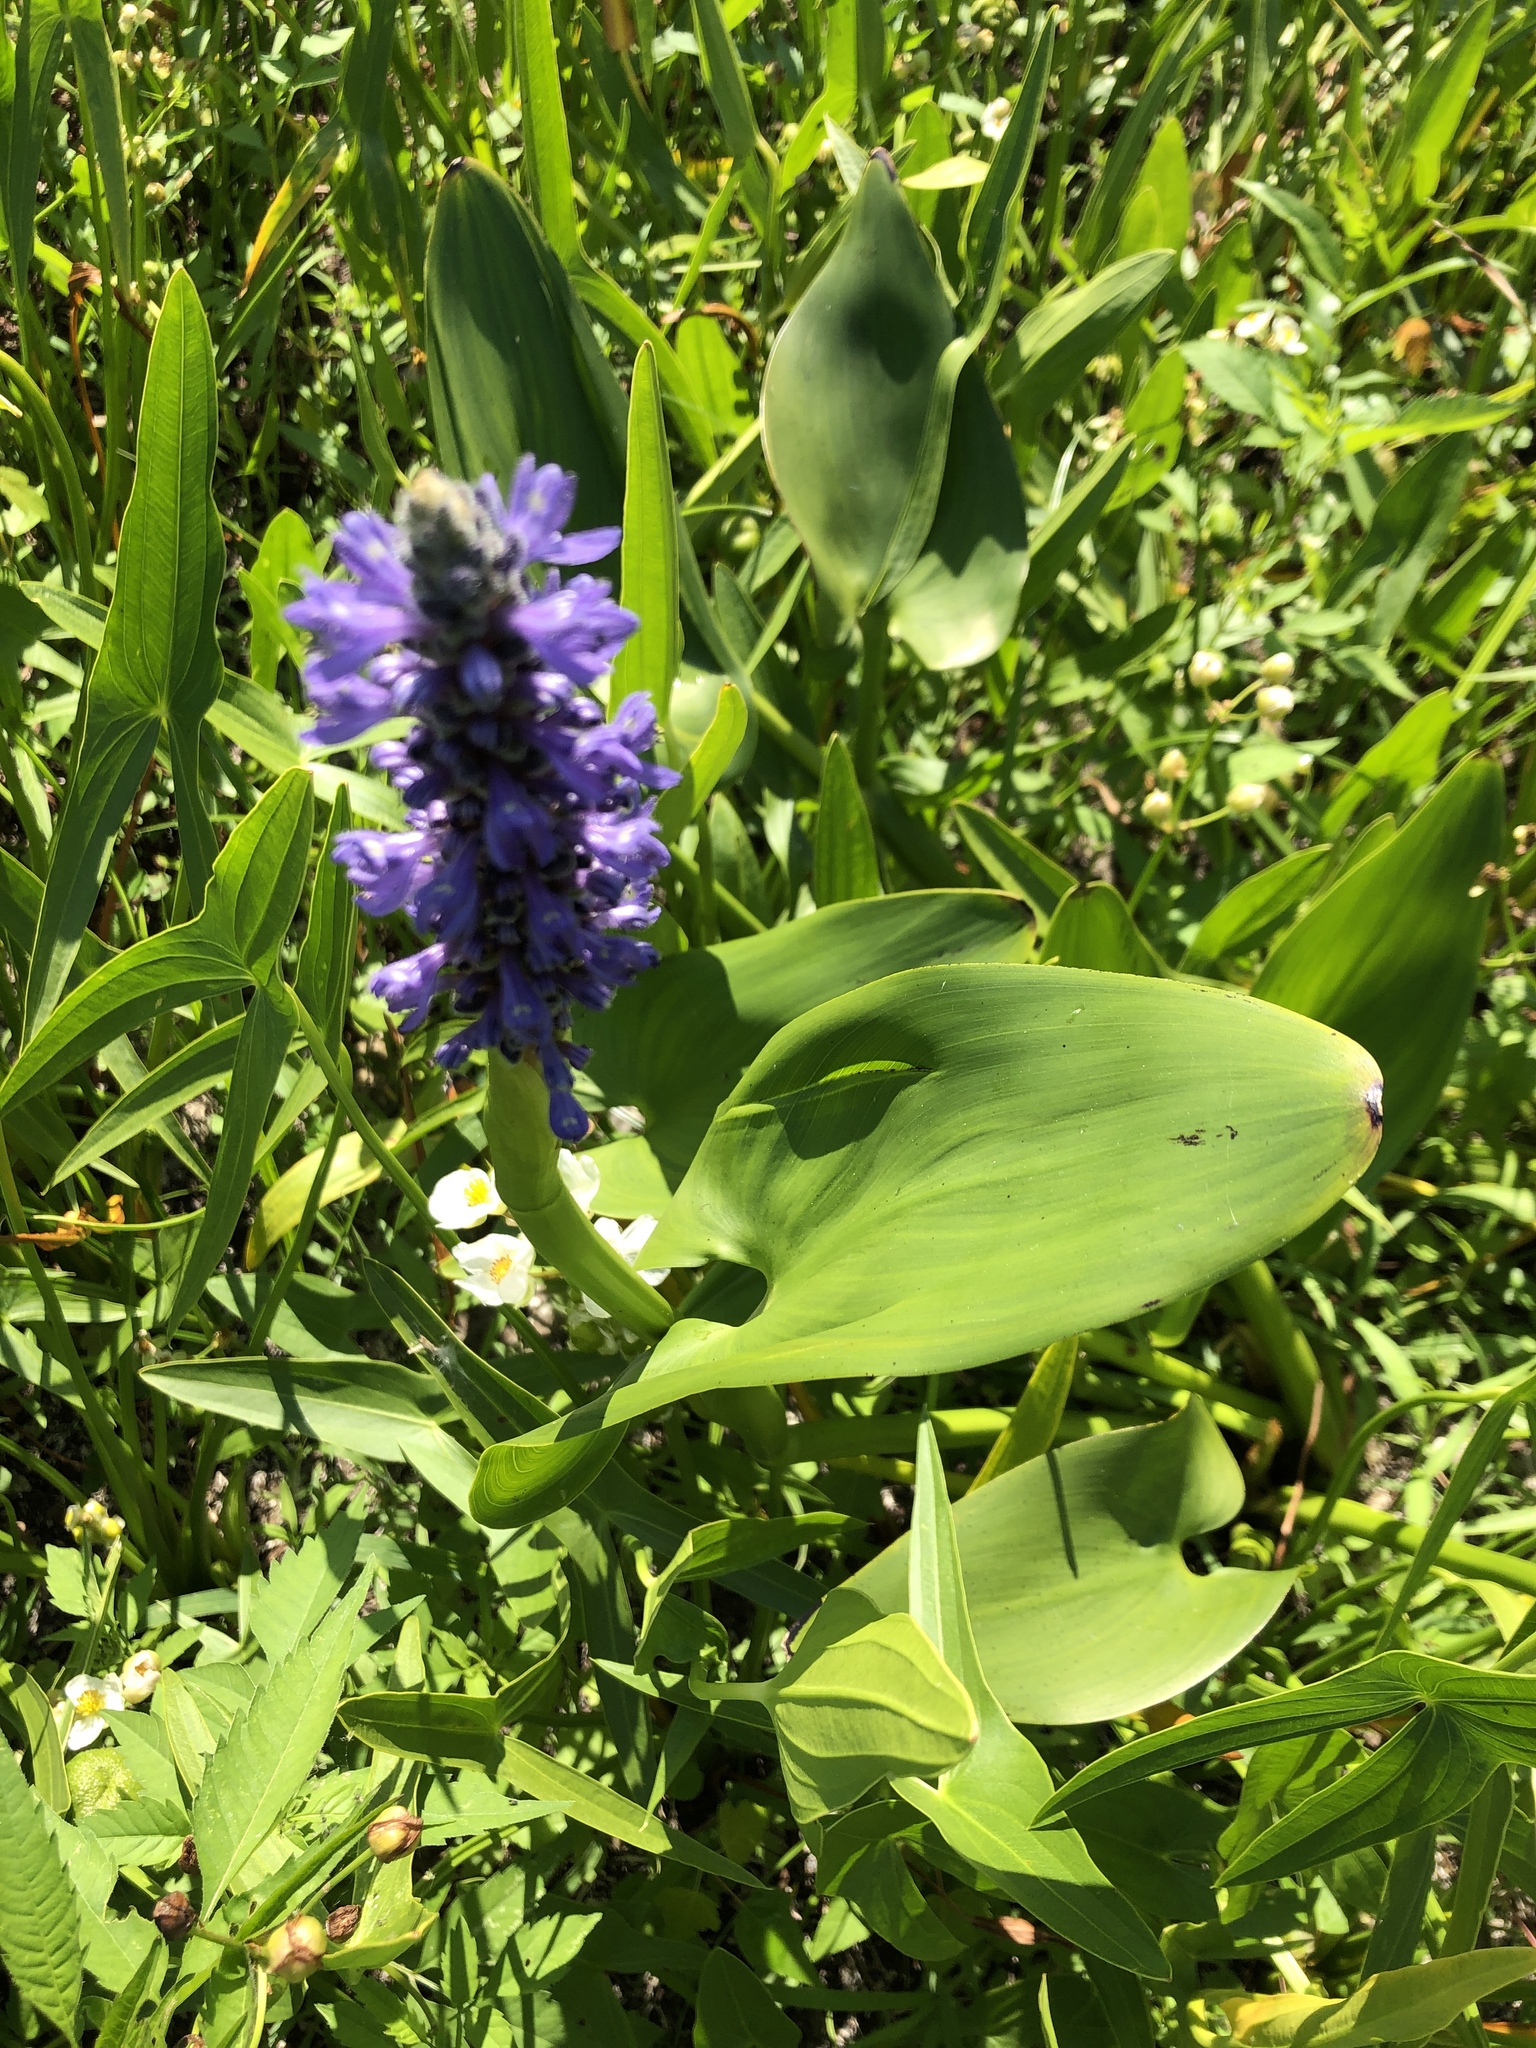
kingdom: Plantae
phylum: Tracheophyta
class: Liliopsida
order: Commelinales
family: Pontederiaceae
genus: Pontederia
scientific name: Pontederia cordata
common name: Pickerelweed
